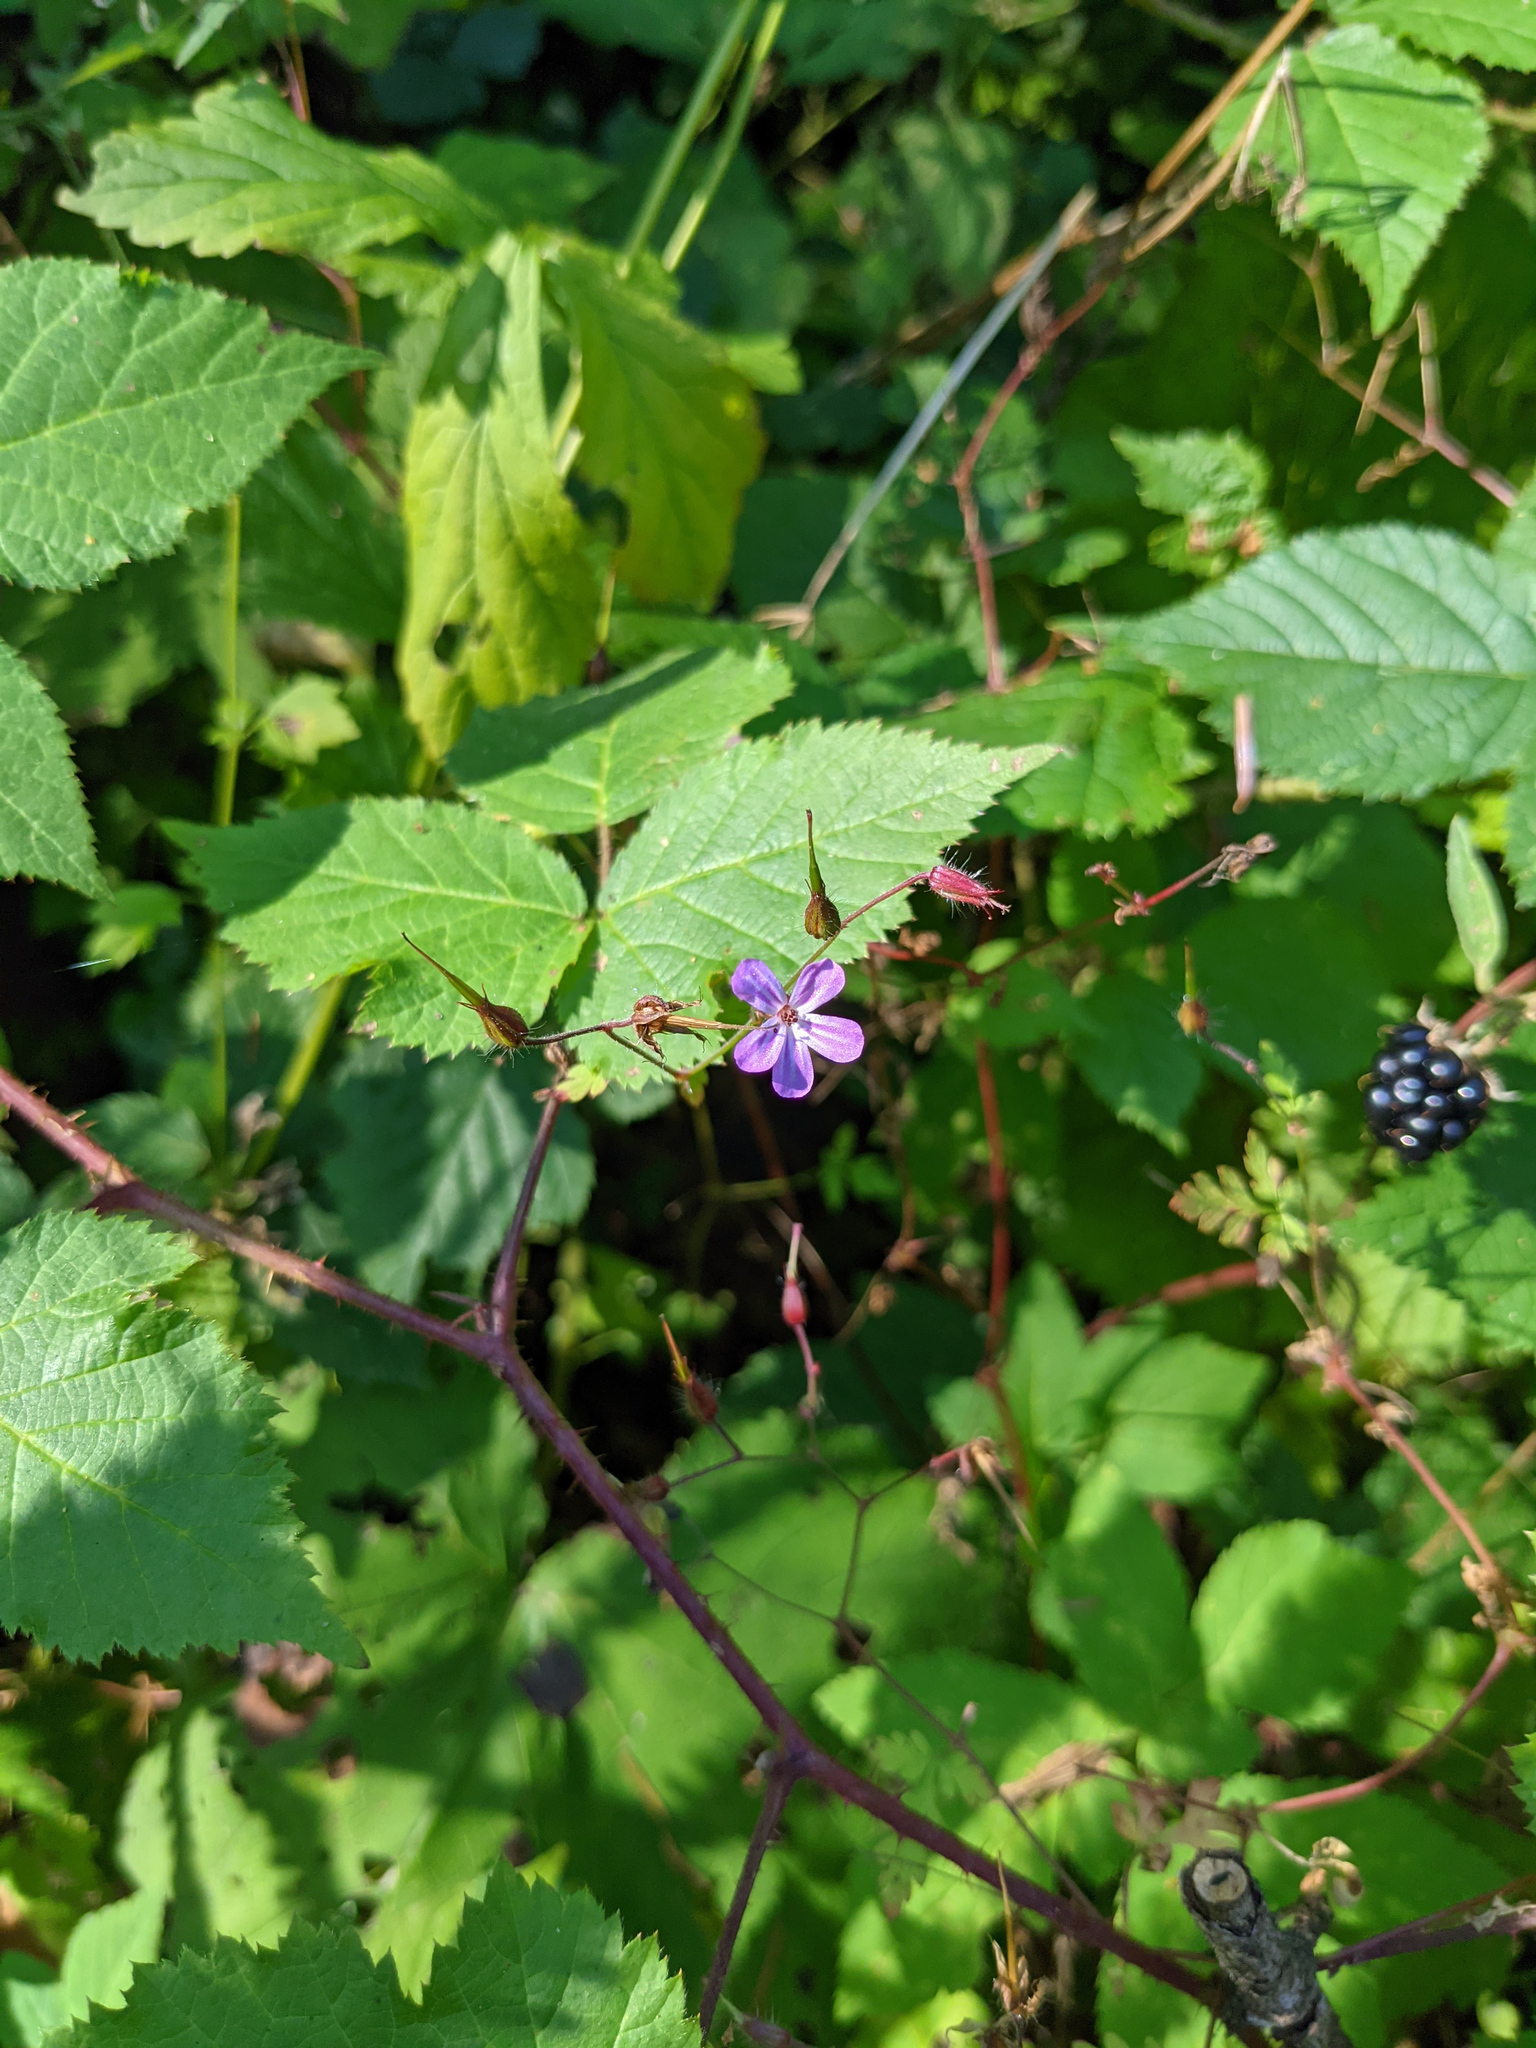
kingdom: Plantae
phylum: Tracheophyta
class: Magnoliopsida
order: Geraniales
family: Geraniaceae
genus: Geranium
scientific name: Geranium robertianum
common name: Herb-robert
